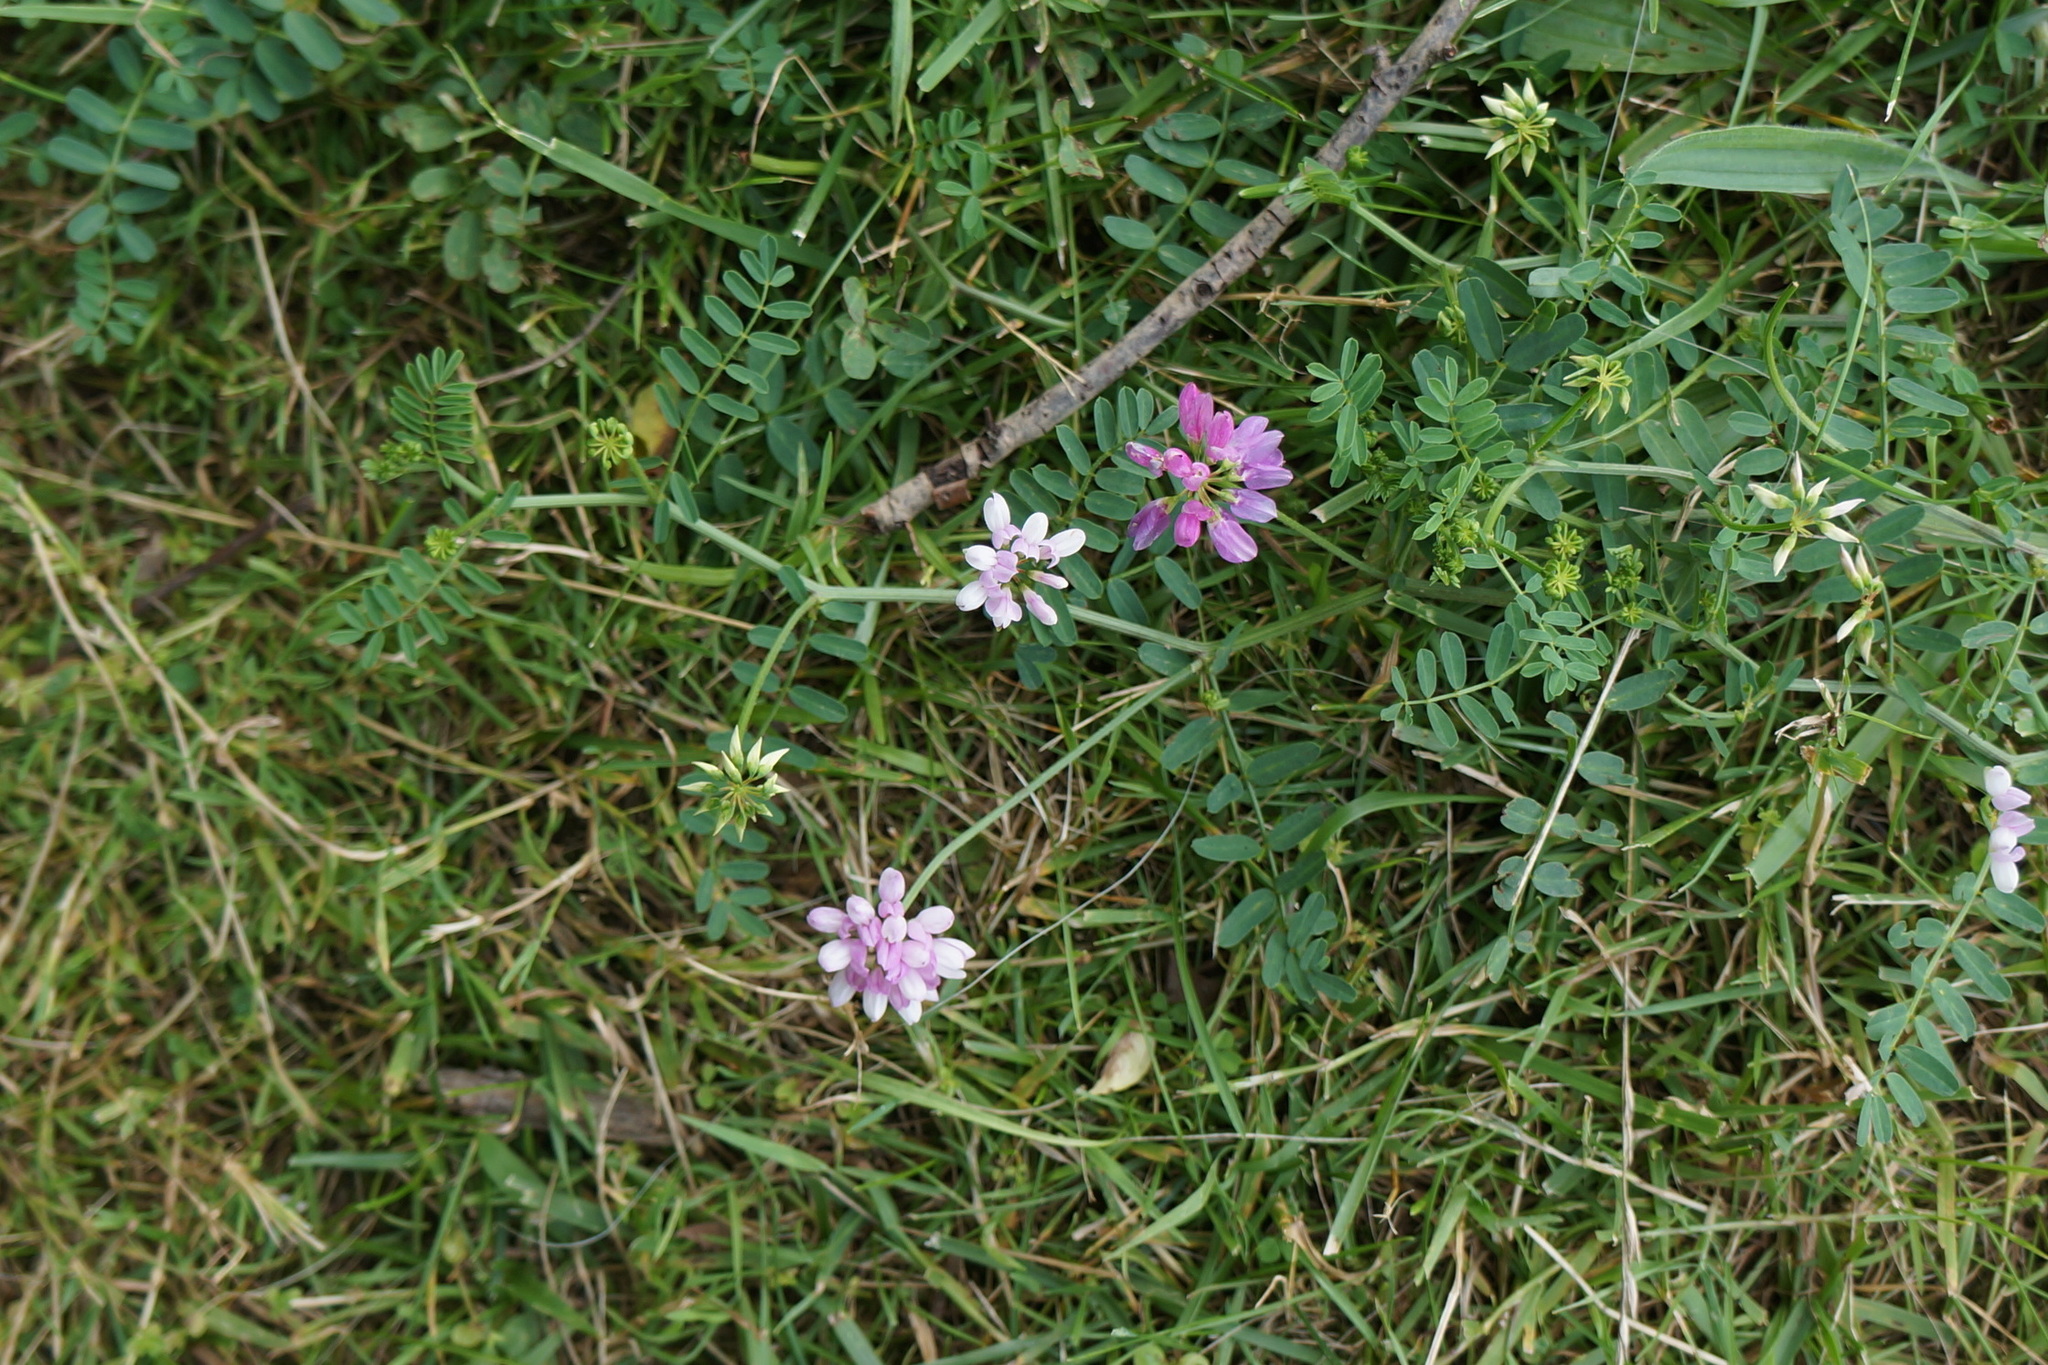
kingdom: Plantae
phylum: Tracheophyta
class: Magnoliopsida
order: Fabales
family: Fabaceae
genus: Coronilla
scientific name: Coronilla varia
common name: Crownvetch
